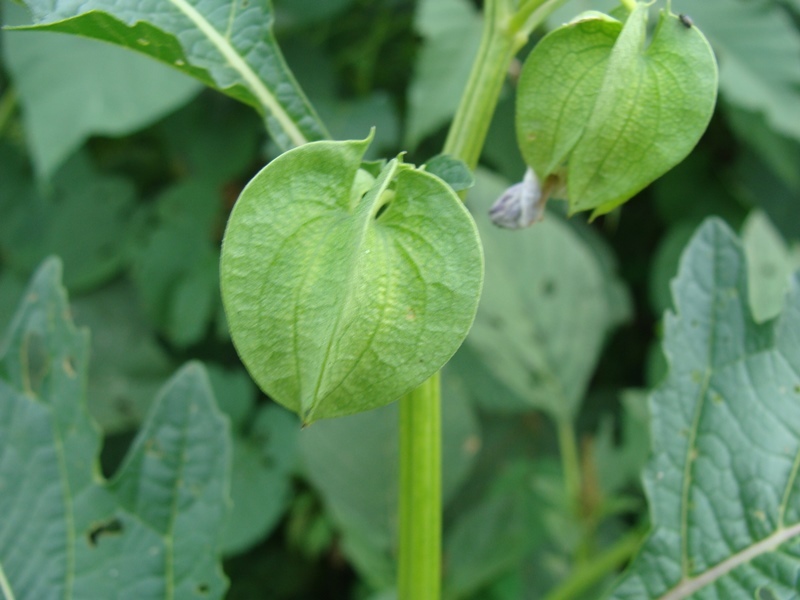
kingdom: Plantae
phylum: Tracheophyta
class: Magnoliopsida
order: Solanales
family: Solanaceae
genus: Nicandra
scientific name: Nicandra physalodes
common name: Apple-of-peru
